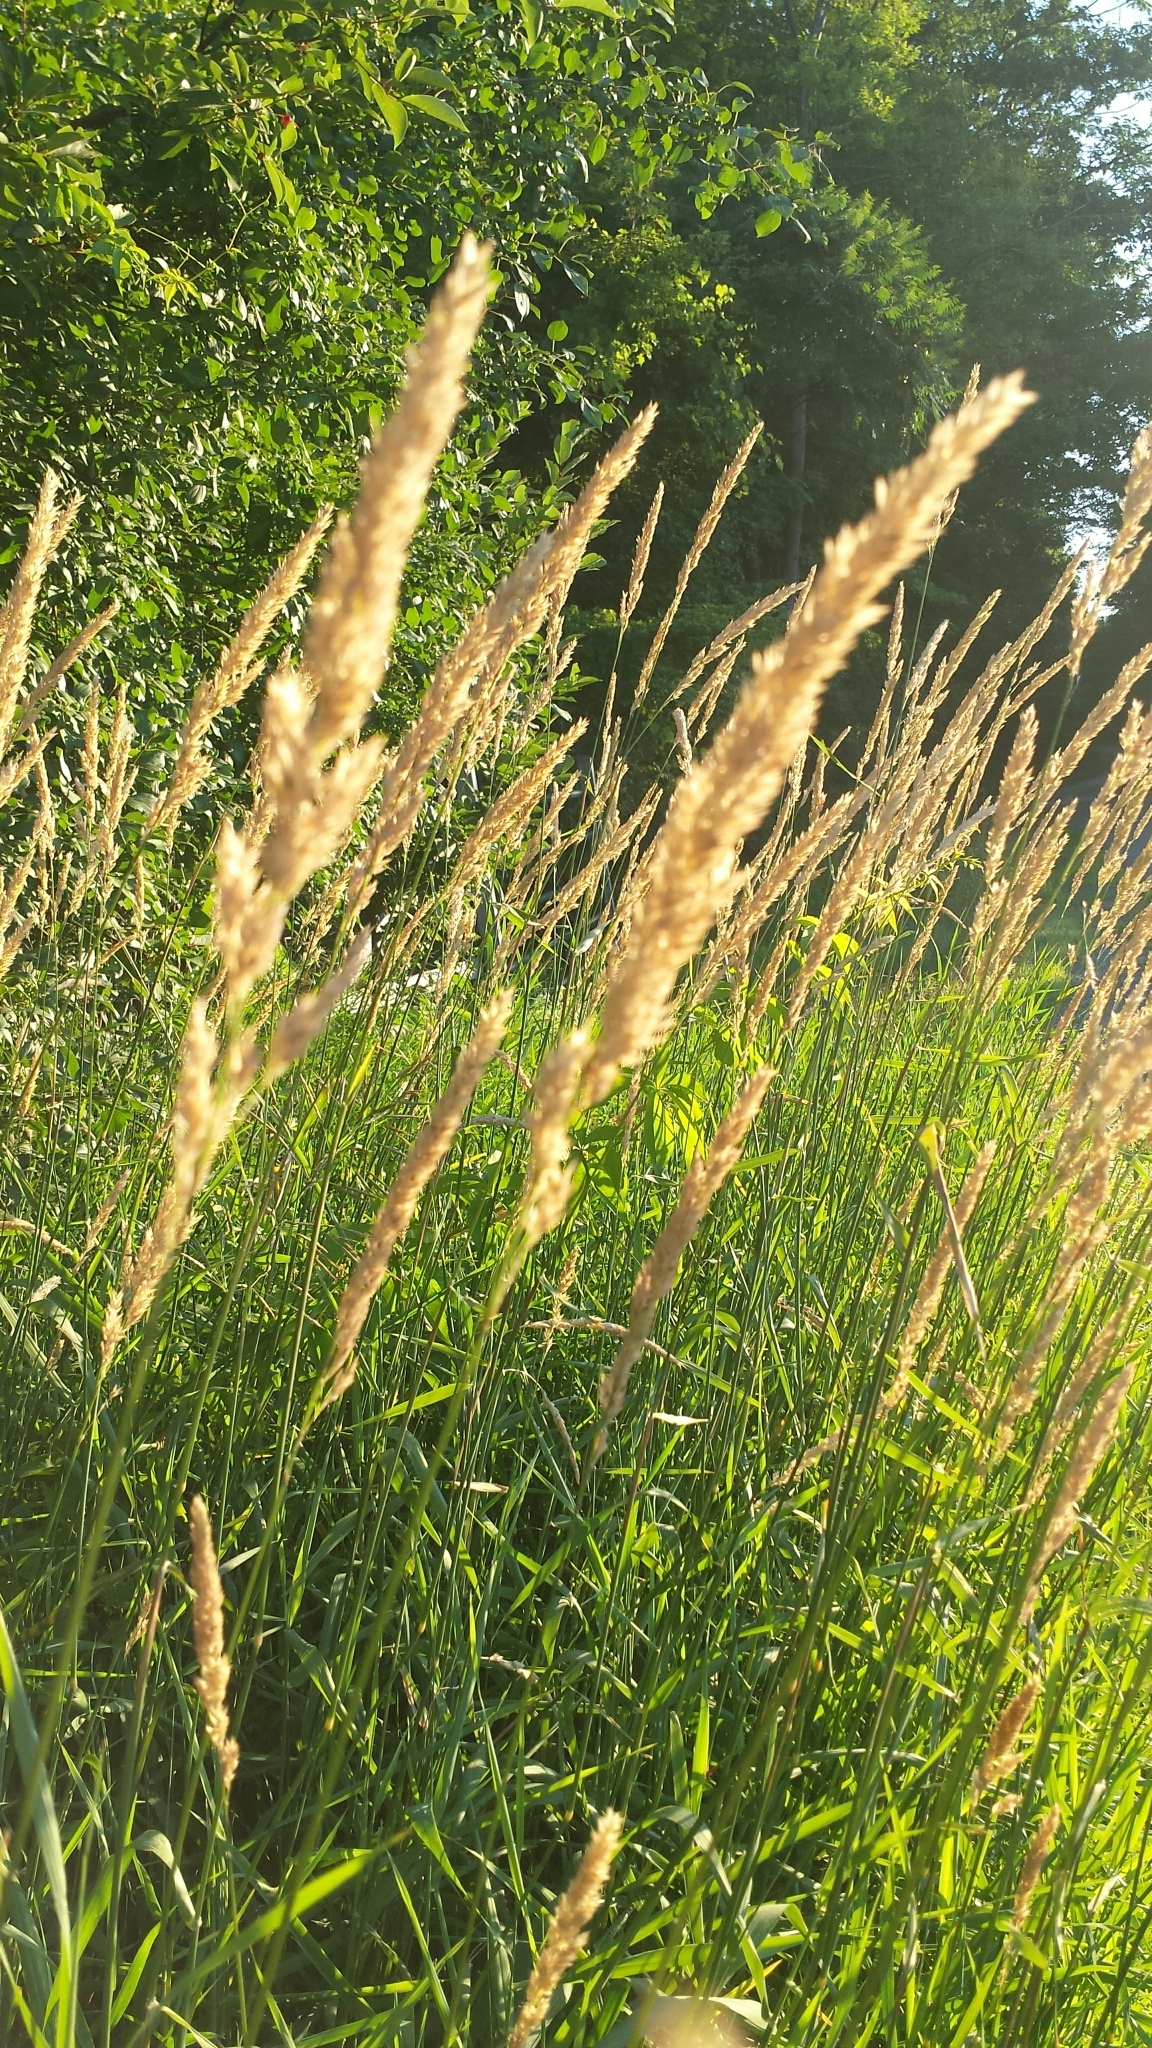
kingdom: Plantae
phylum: Tracheophyta
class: Liliopsida
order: Poales
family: Poaceae
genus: Phalaris
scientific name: Phalaris arundinacea
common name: Reed canary-grass
